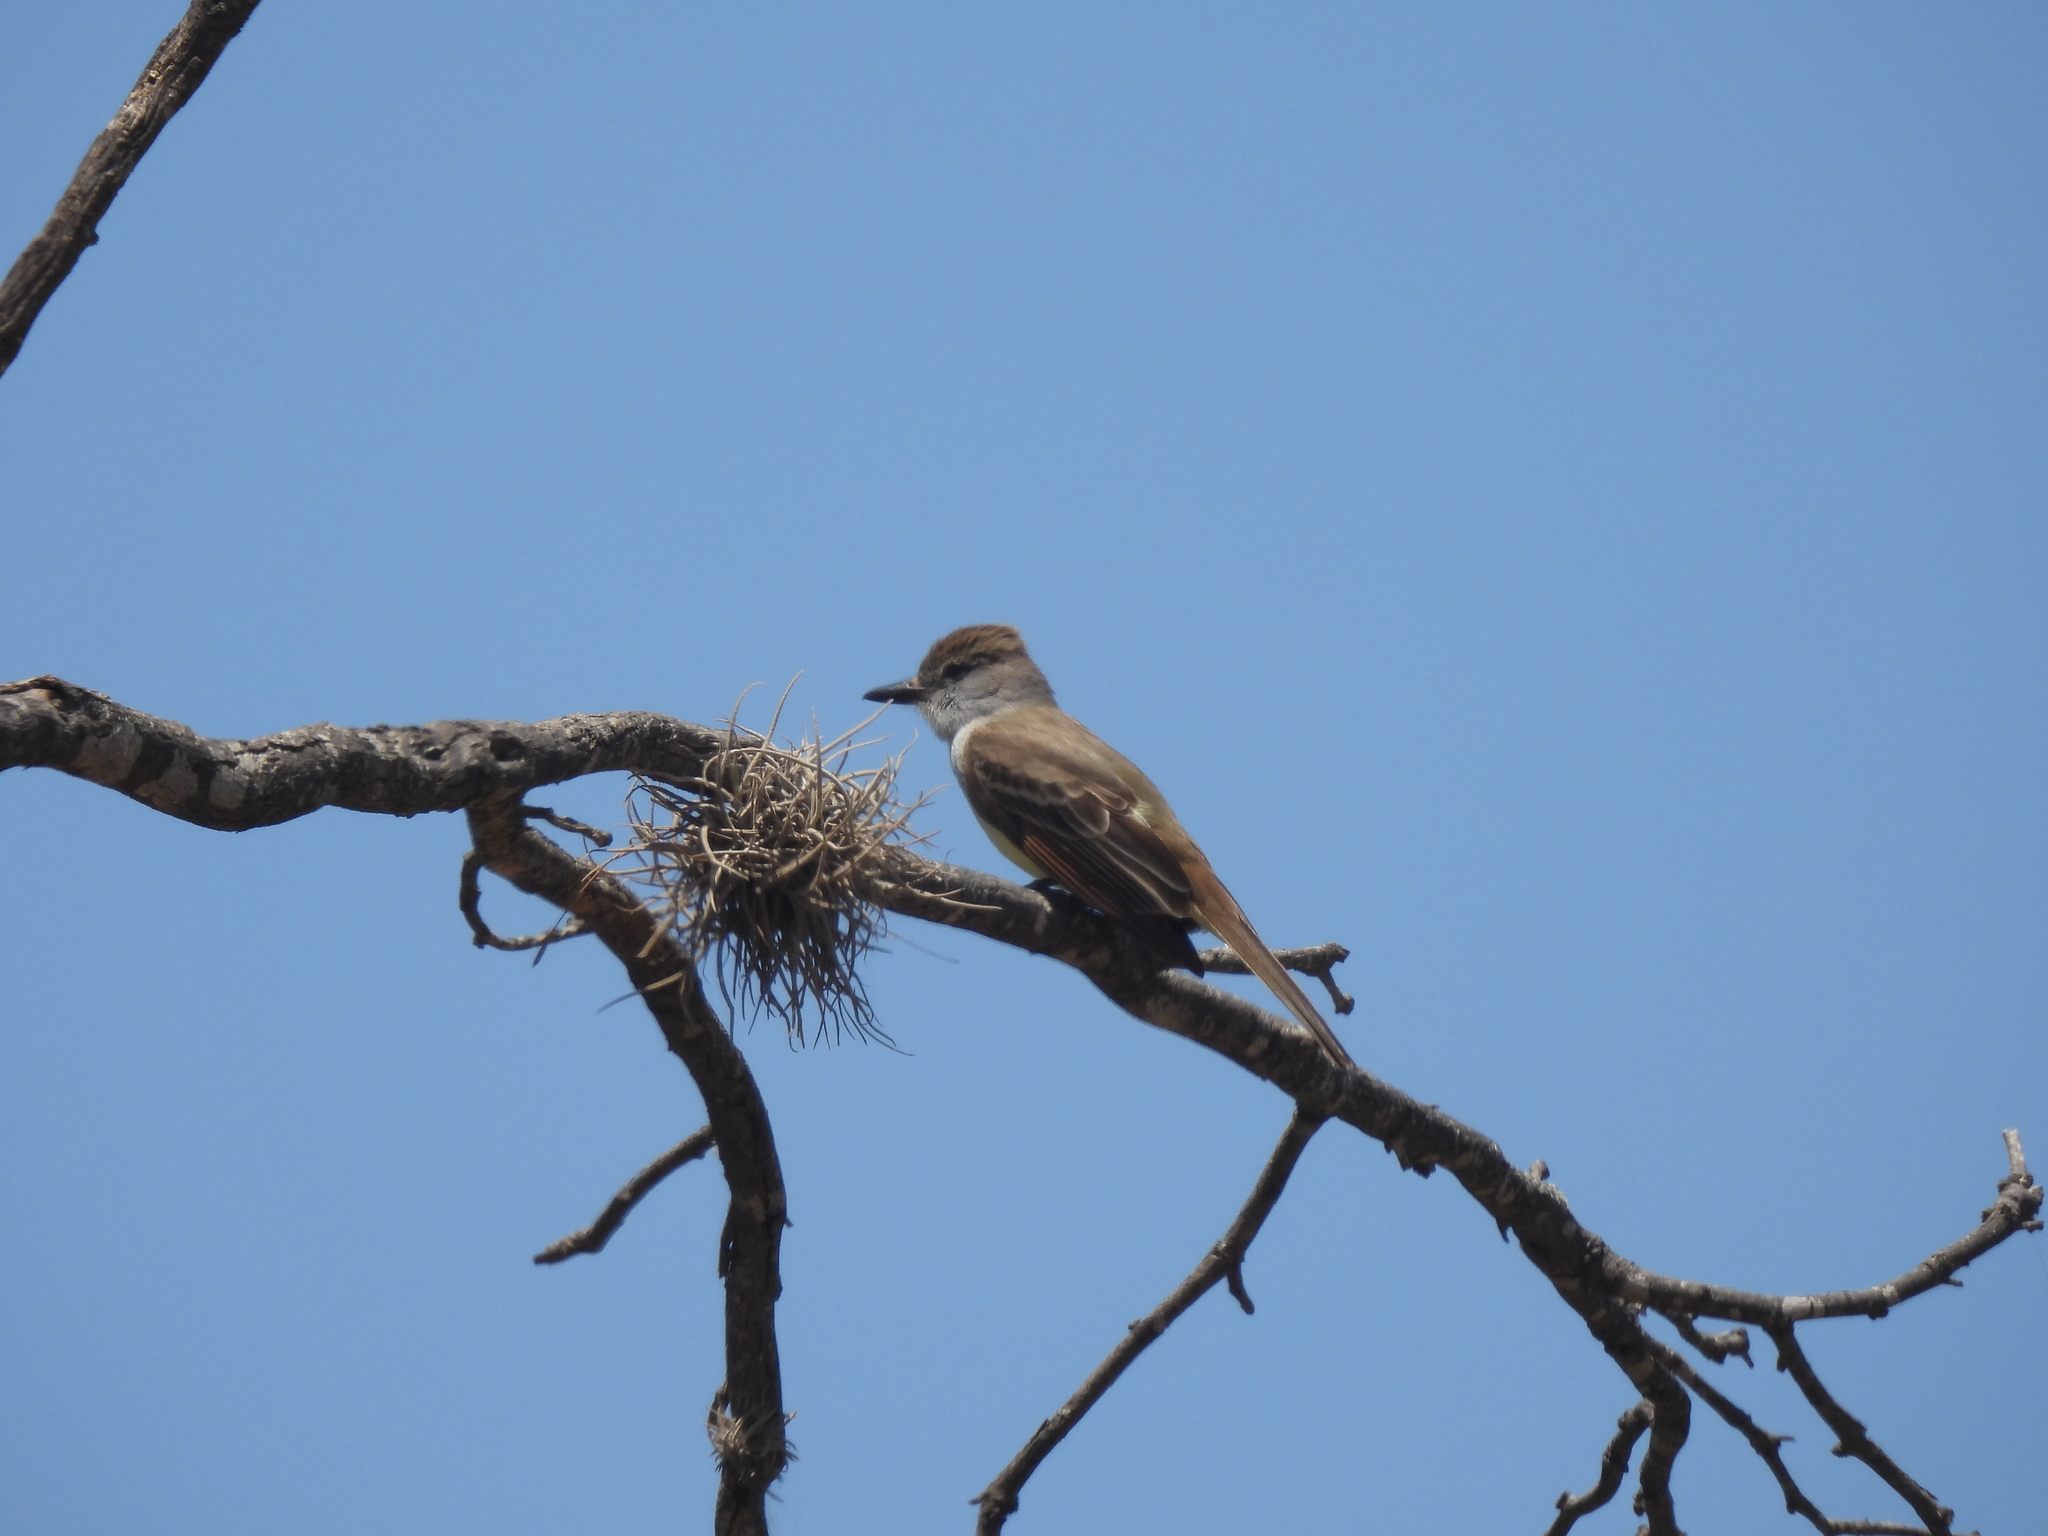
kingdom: Animalia
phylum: Chordata
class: Aves
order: Passeriformes
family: Tyrannidae
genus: Myiarchus
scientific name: Myiarchus tyrannulus
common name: Brown-crested flycatcher
